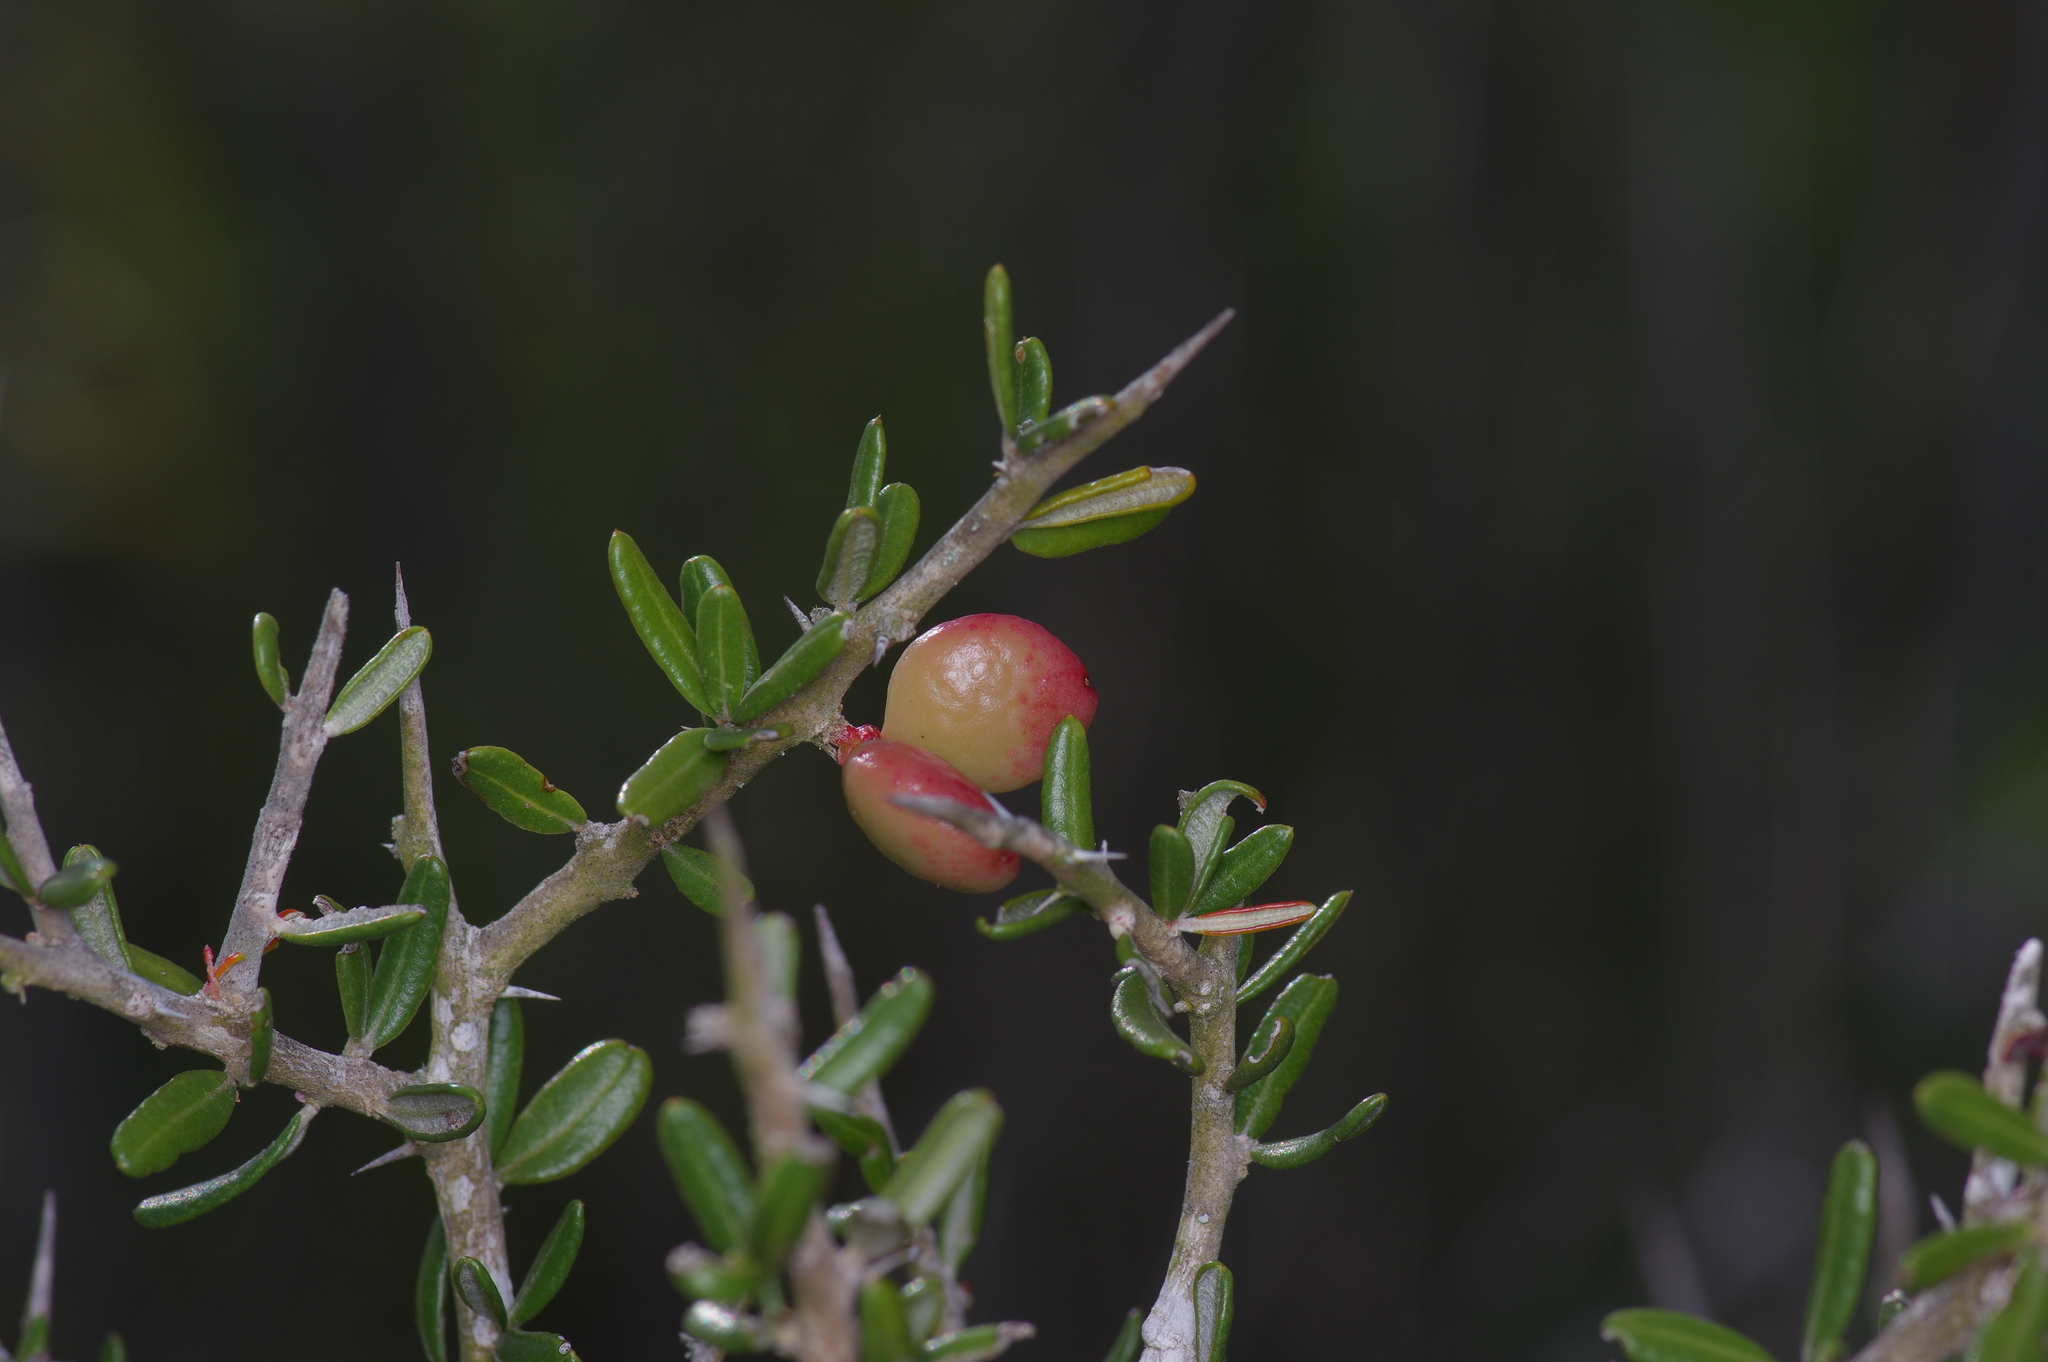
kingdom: Plantae
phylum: Tracheophyta
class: Magnoliopsida
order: Sapindales
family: Simaroubaceae
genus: Castela
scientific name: Castela erecta
